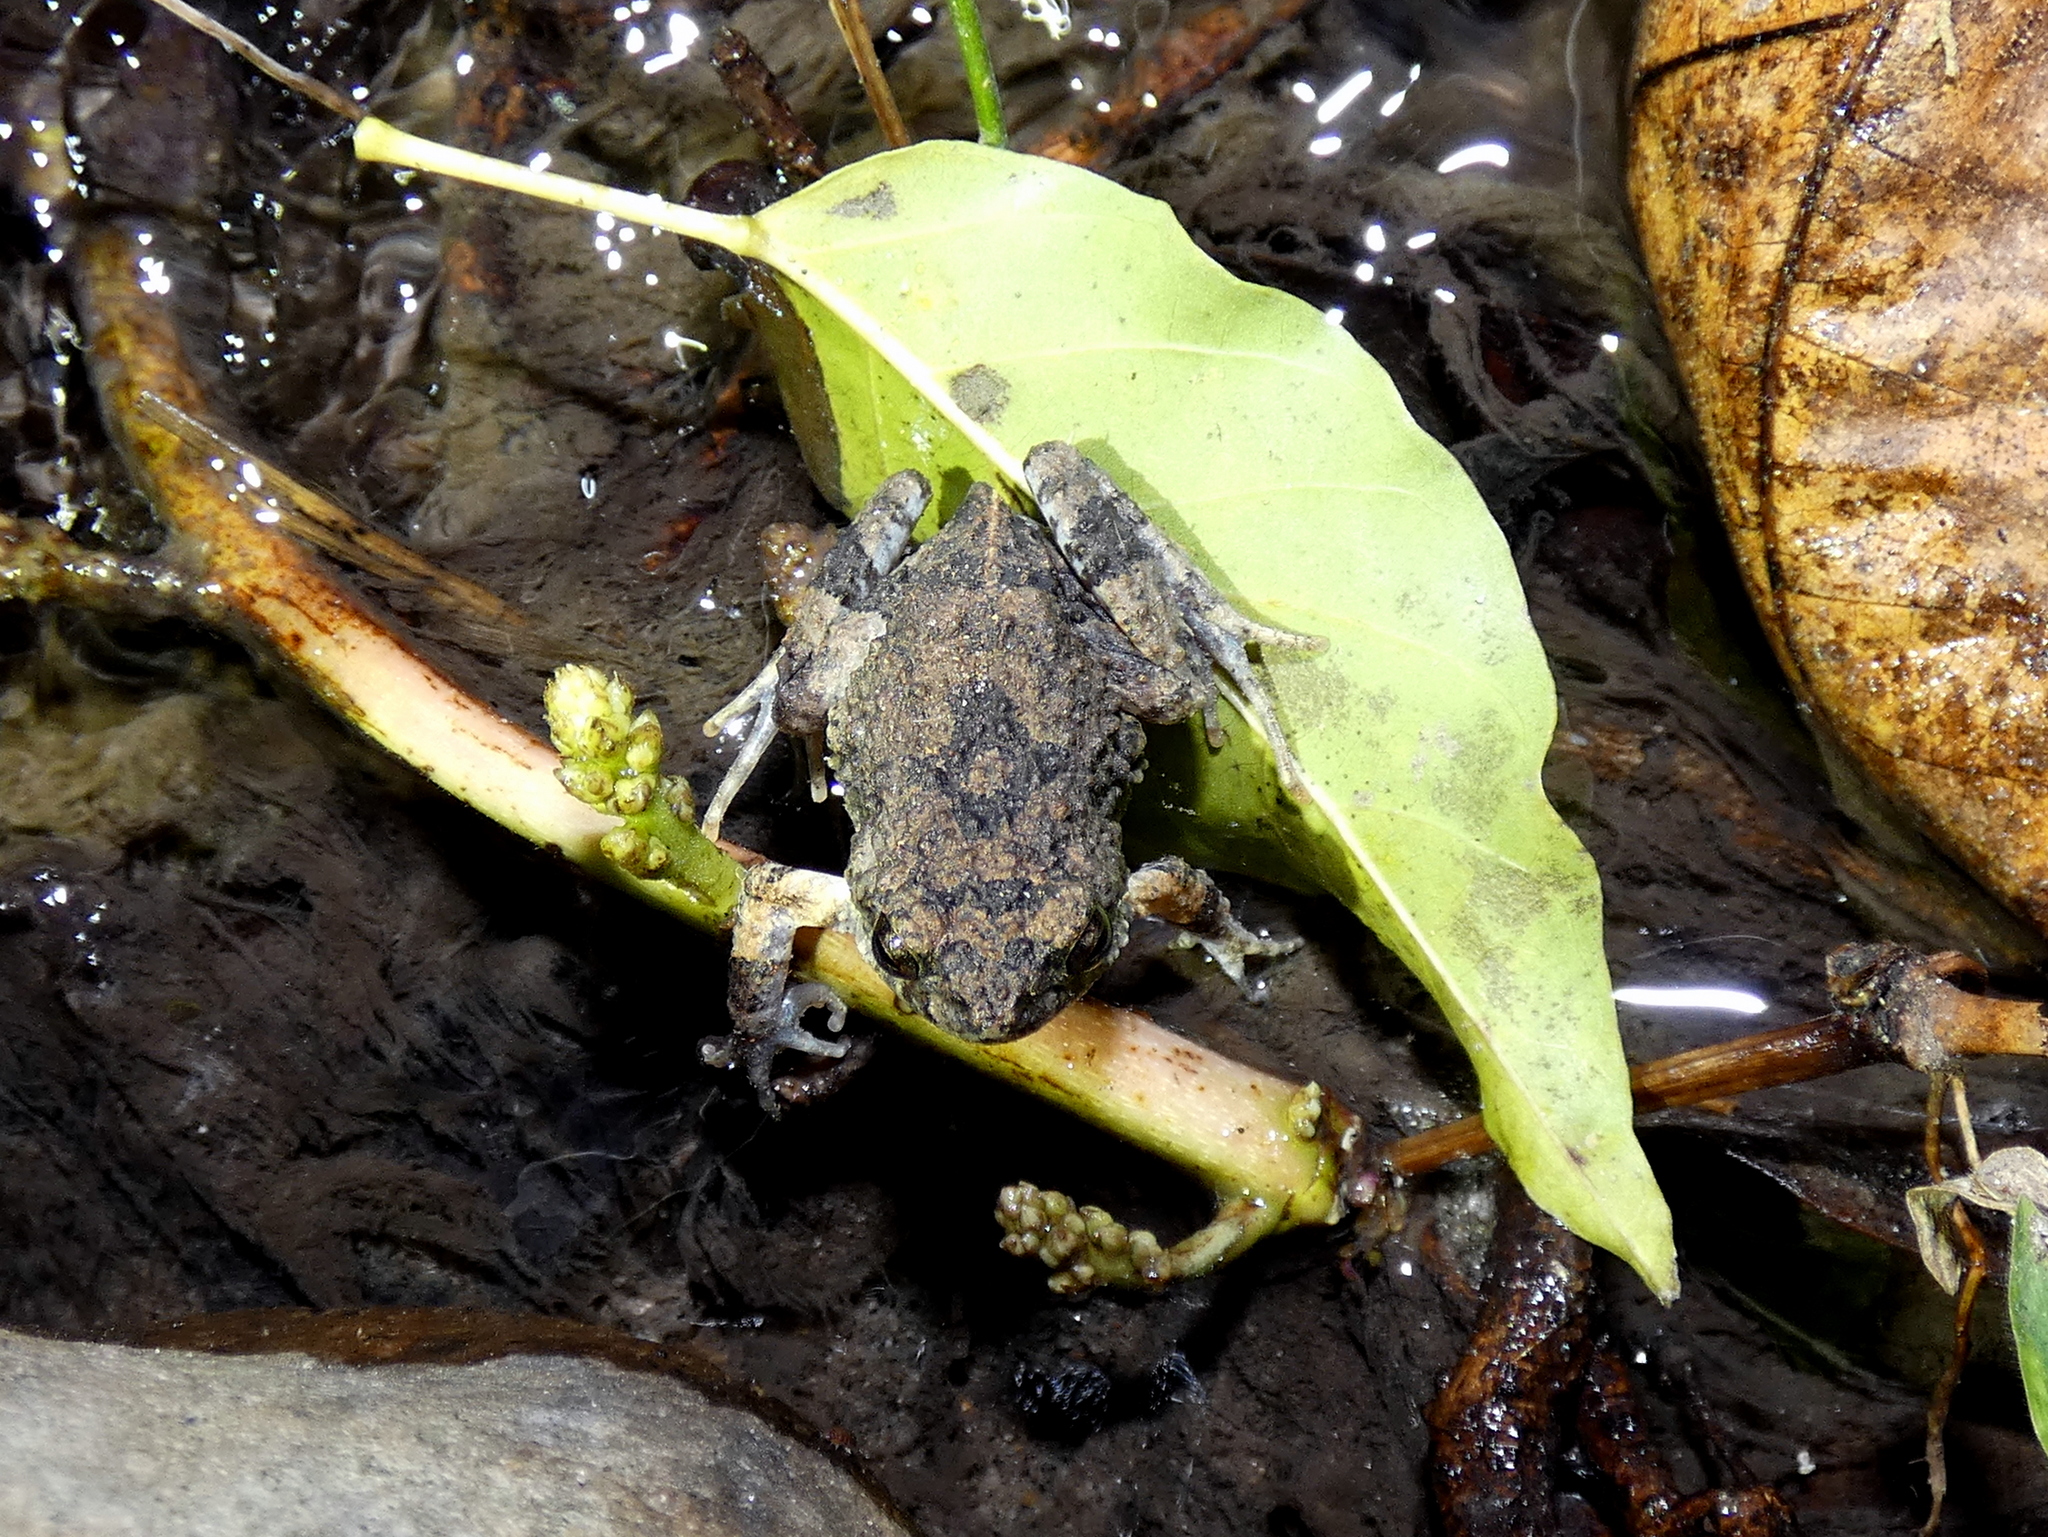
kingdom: Animalia
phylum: Chordata
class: Amphibia
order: Anura
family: Leptodactylidae
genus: Engystomops
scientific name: Engystomops pustulosus
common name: Tungara frog
